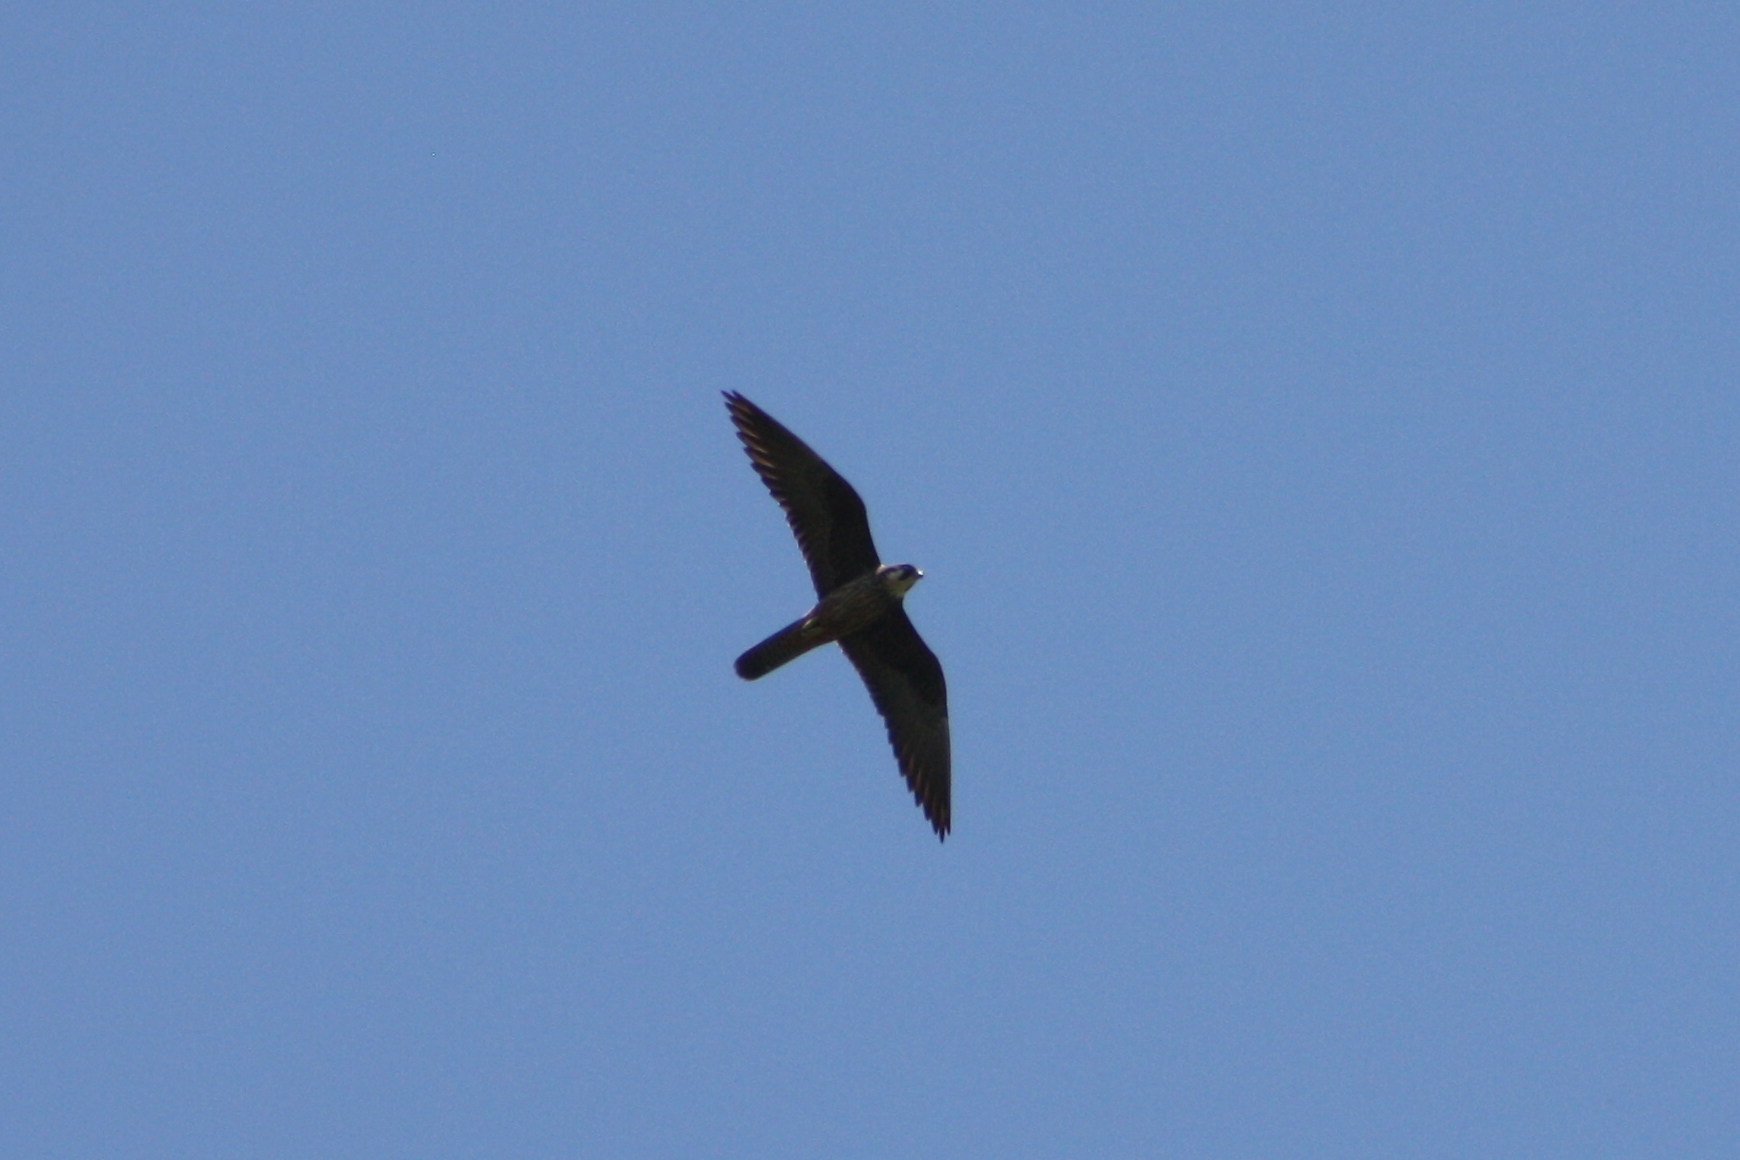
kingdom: Animalia
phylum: Chordata
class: Aves
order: Falconiformes
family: Falconidae
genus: Falco
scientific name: Falco eleonorae
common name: Eleonora's falcon
